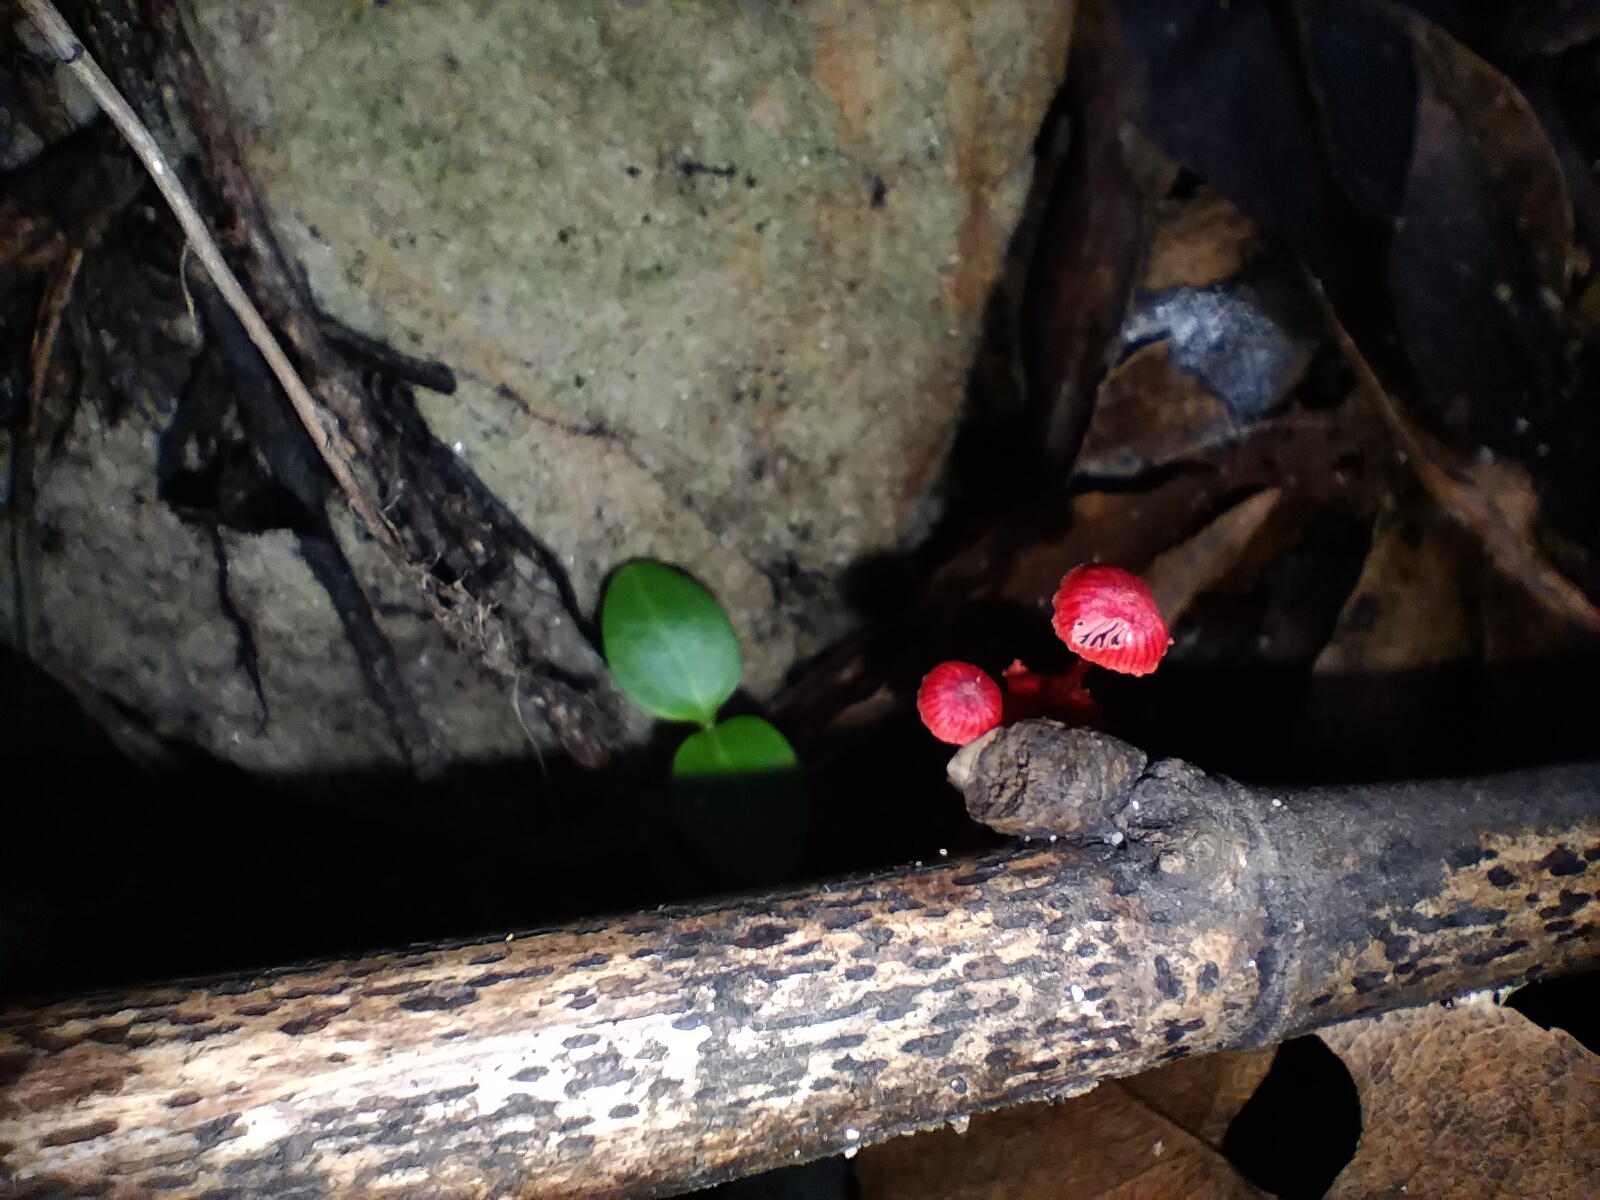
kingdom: Fungi
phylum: Basidiomycota
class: Agaricomycetes
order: Agaricales
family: Mycenaceae
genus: Cruentomycena
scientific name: Cruentomycena viscidocruenta
